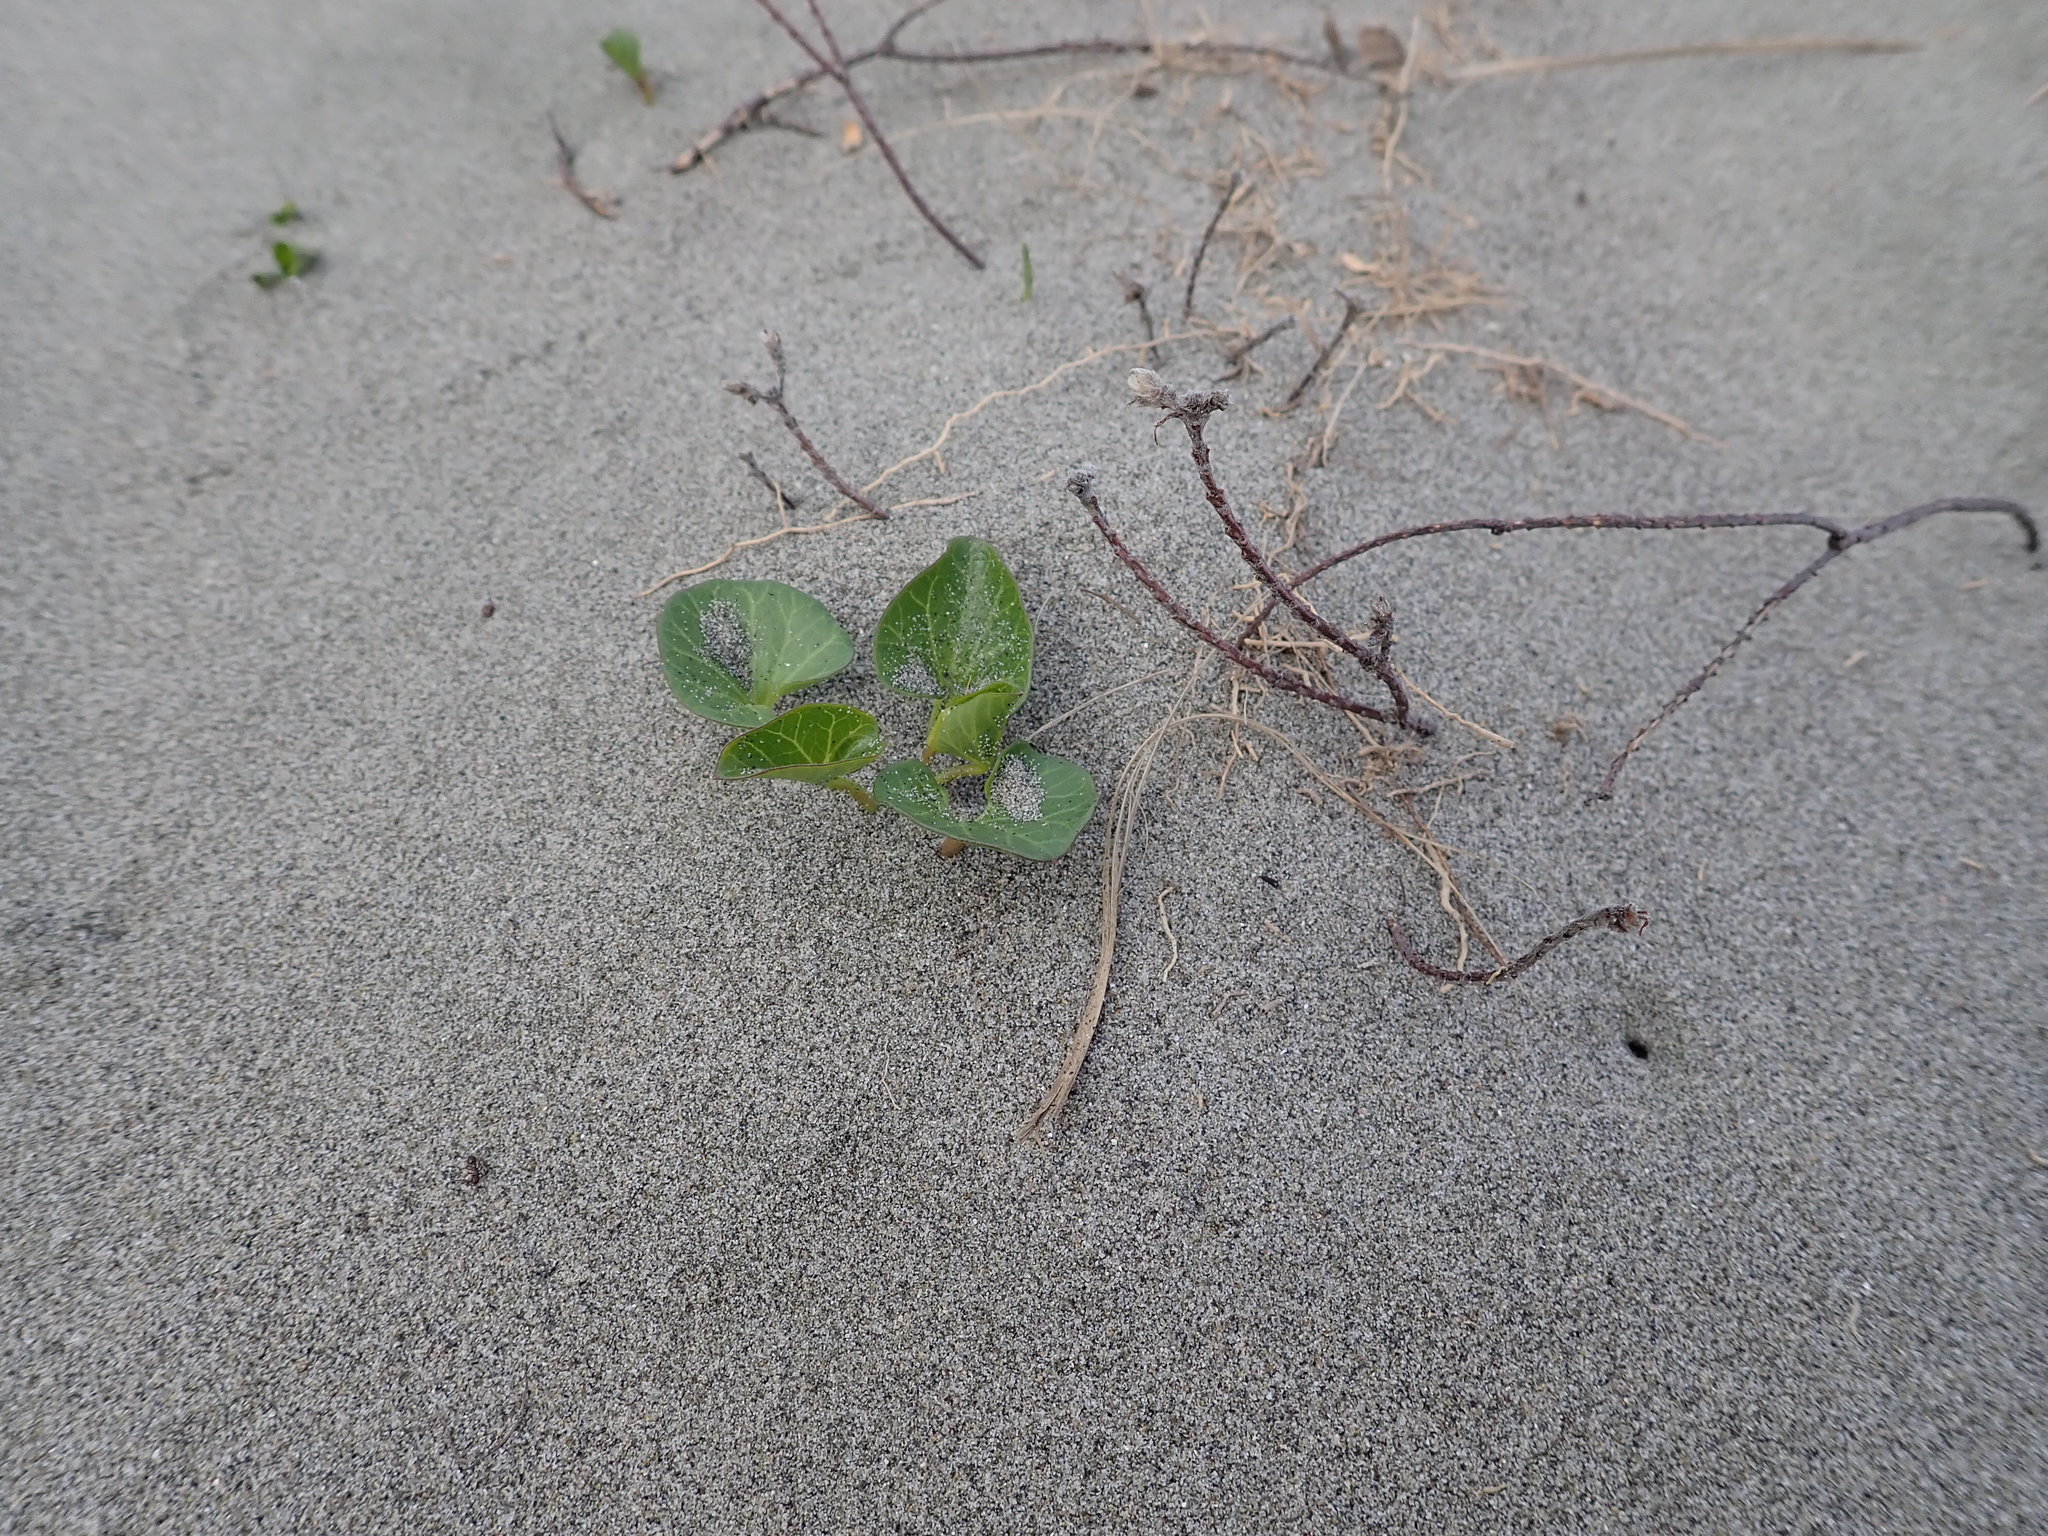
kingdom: Plantae
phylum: Tracheophyta
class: Magnoliopsida
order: Solanales
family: Convolvulaceae
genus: Calystegia
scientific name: Calystegia soldanella
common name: Sea bindweed
